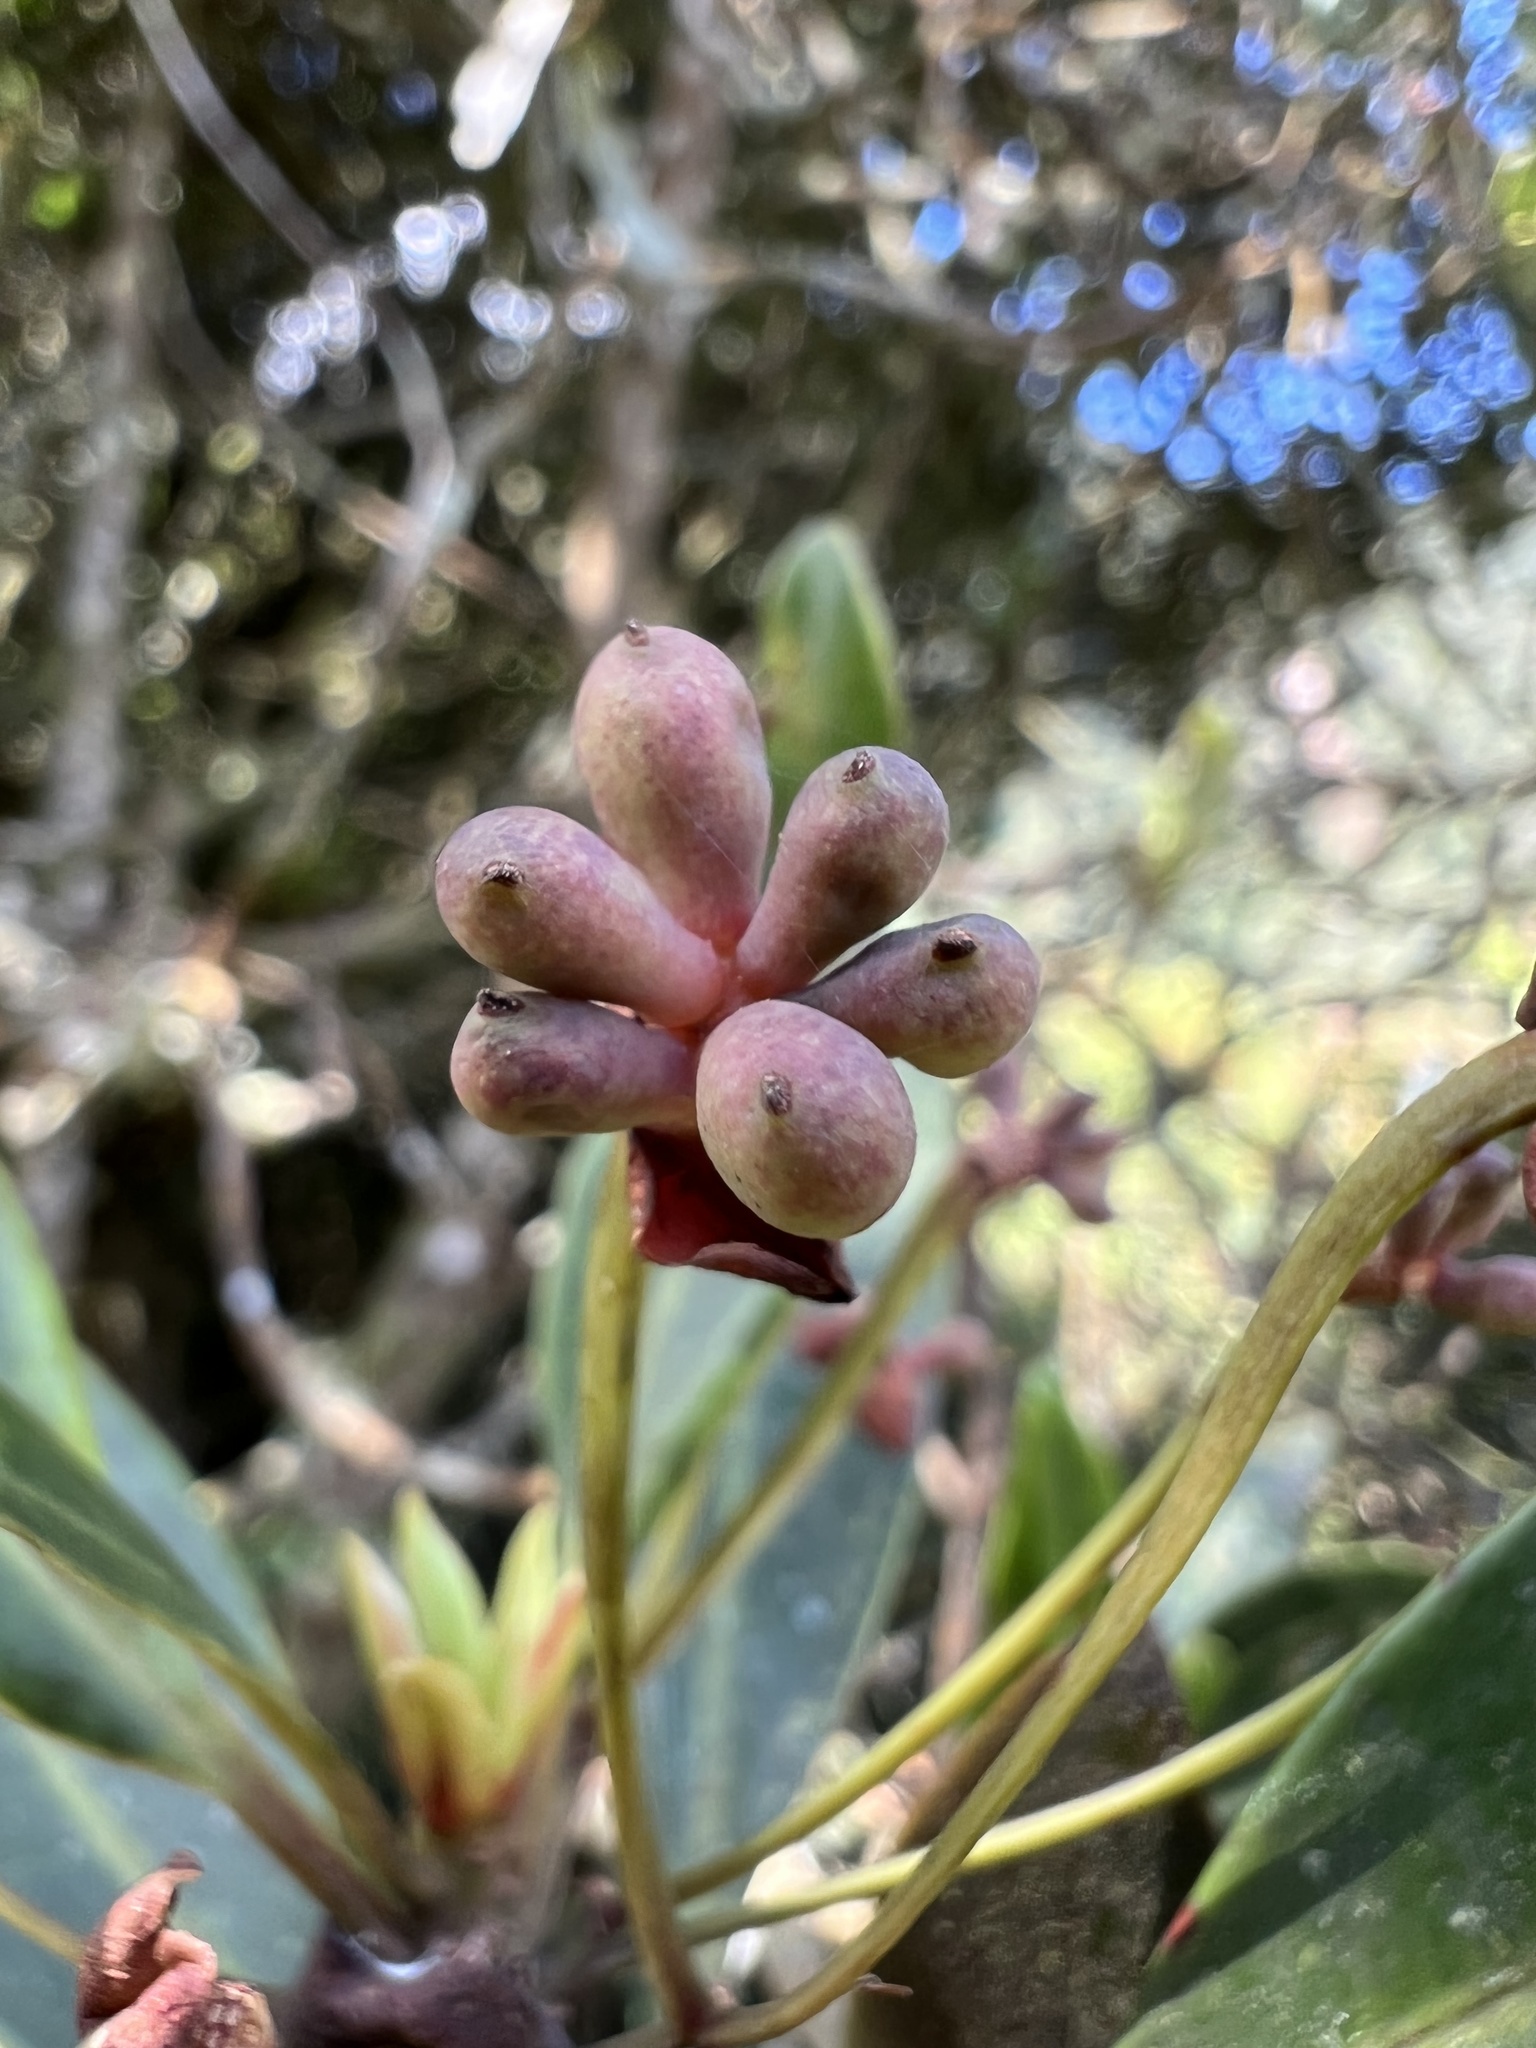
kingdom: Plantae
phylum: Tracheophyta
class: Magnoliopsida
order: Canellales
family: Winteraceae
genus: Drimys
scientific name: Drimys granadensis
